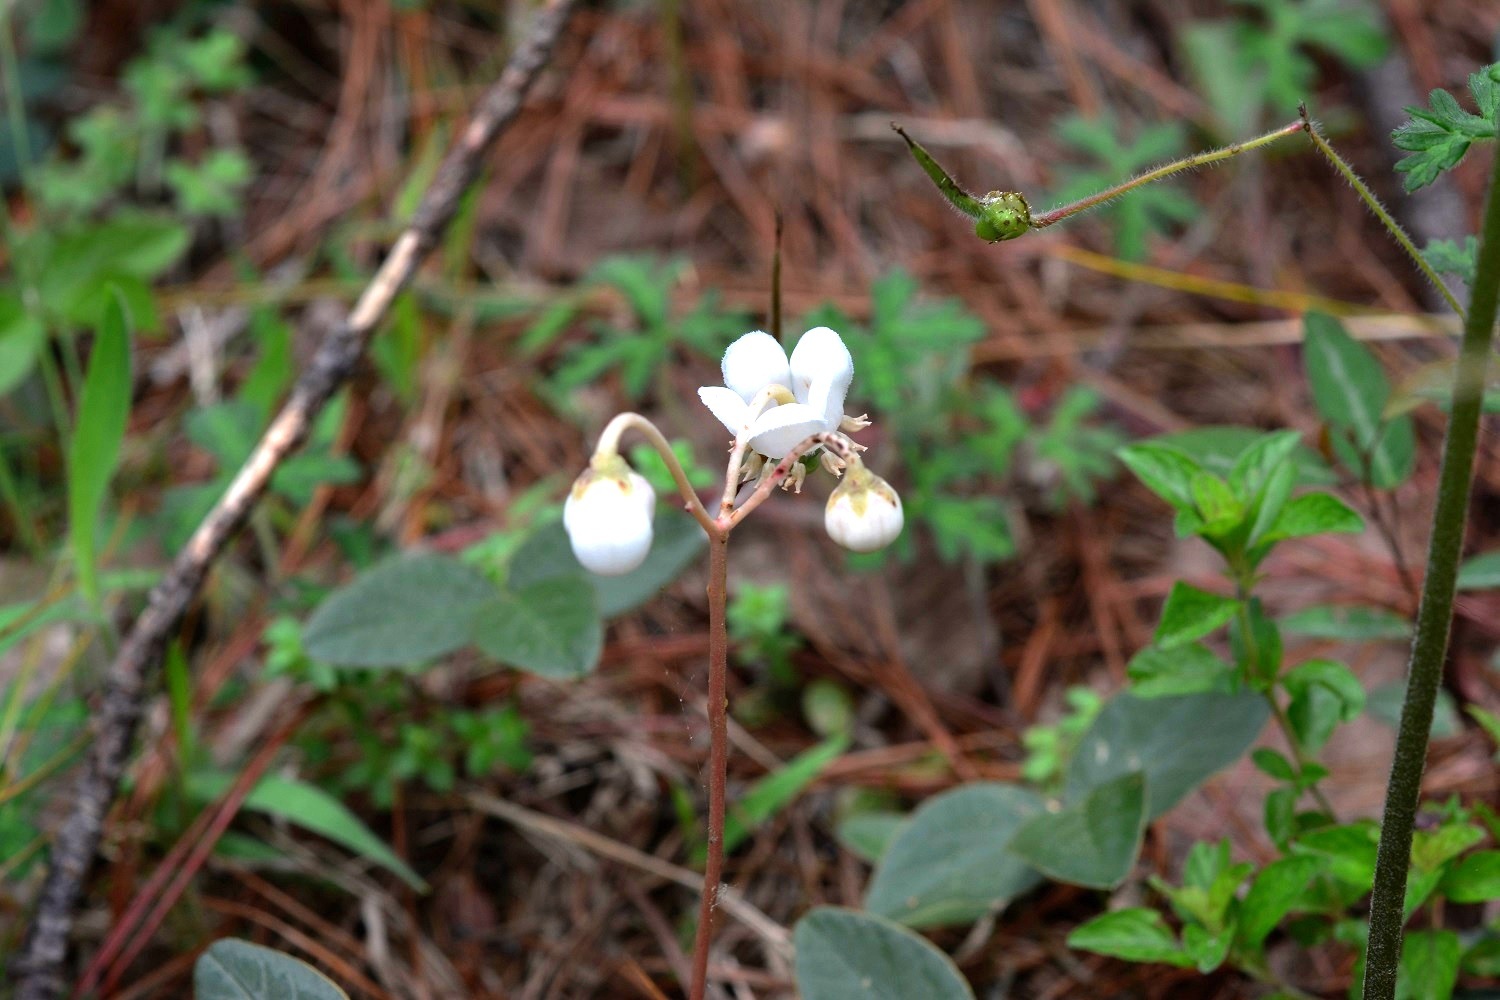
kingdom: Plantae
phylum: Tracheophyta
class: Magnoliopsida
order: Ericales
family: Ericaceae
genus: Chimaphila
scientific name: Chimaphila maculata
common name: Spotted pipsissewa
